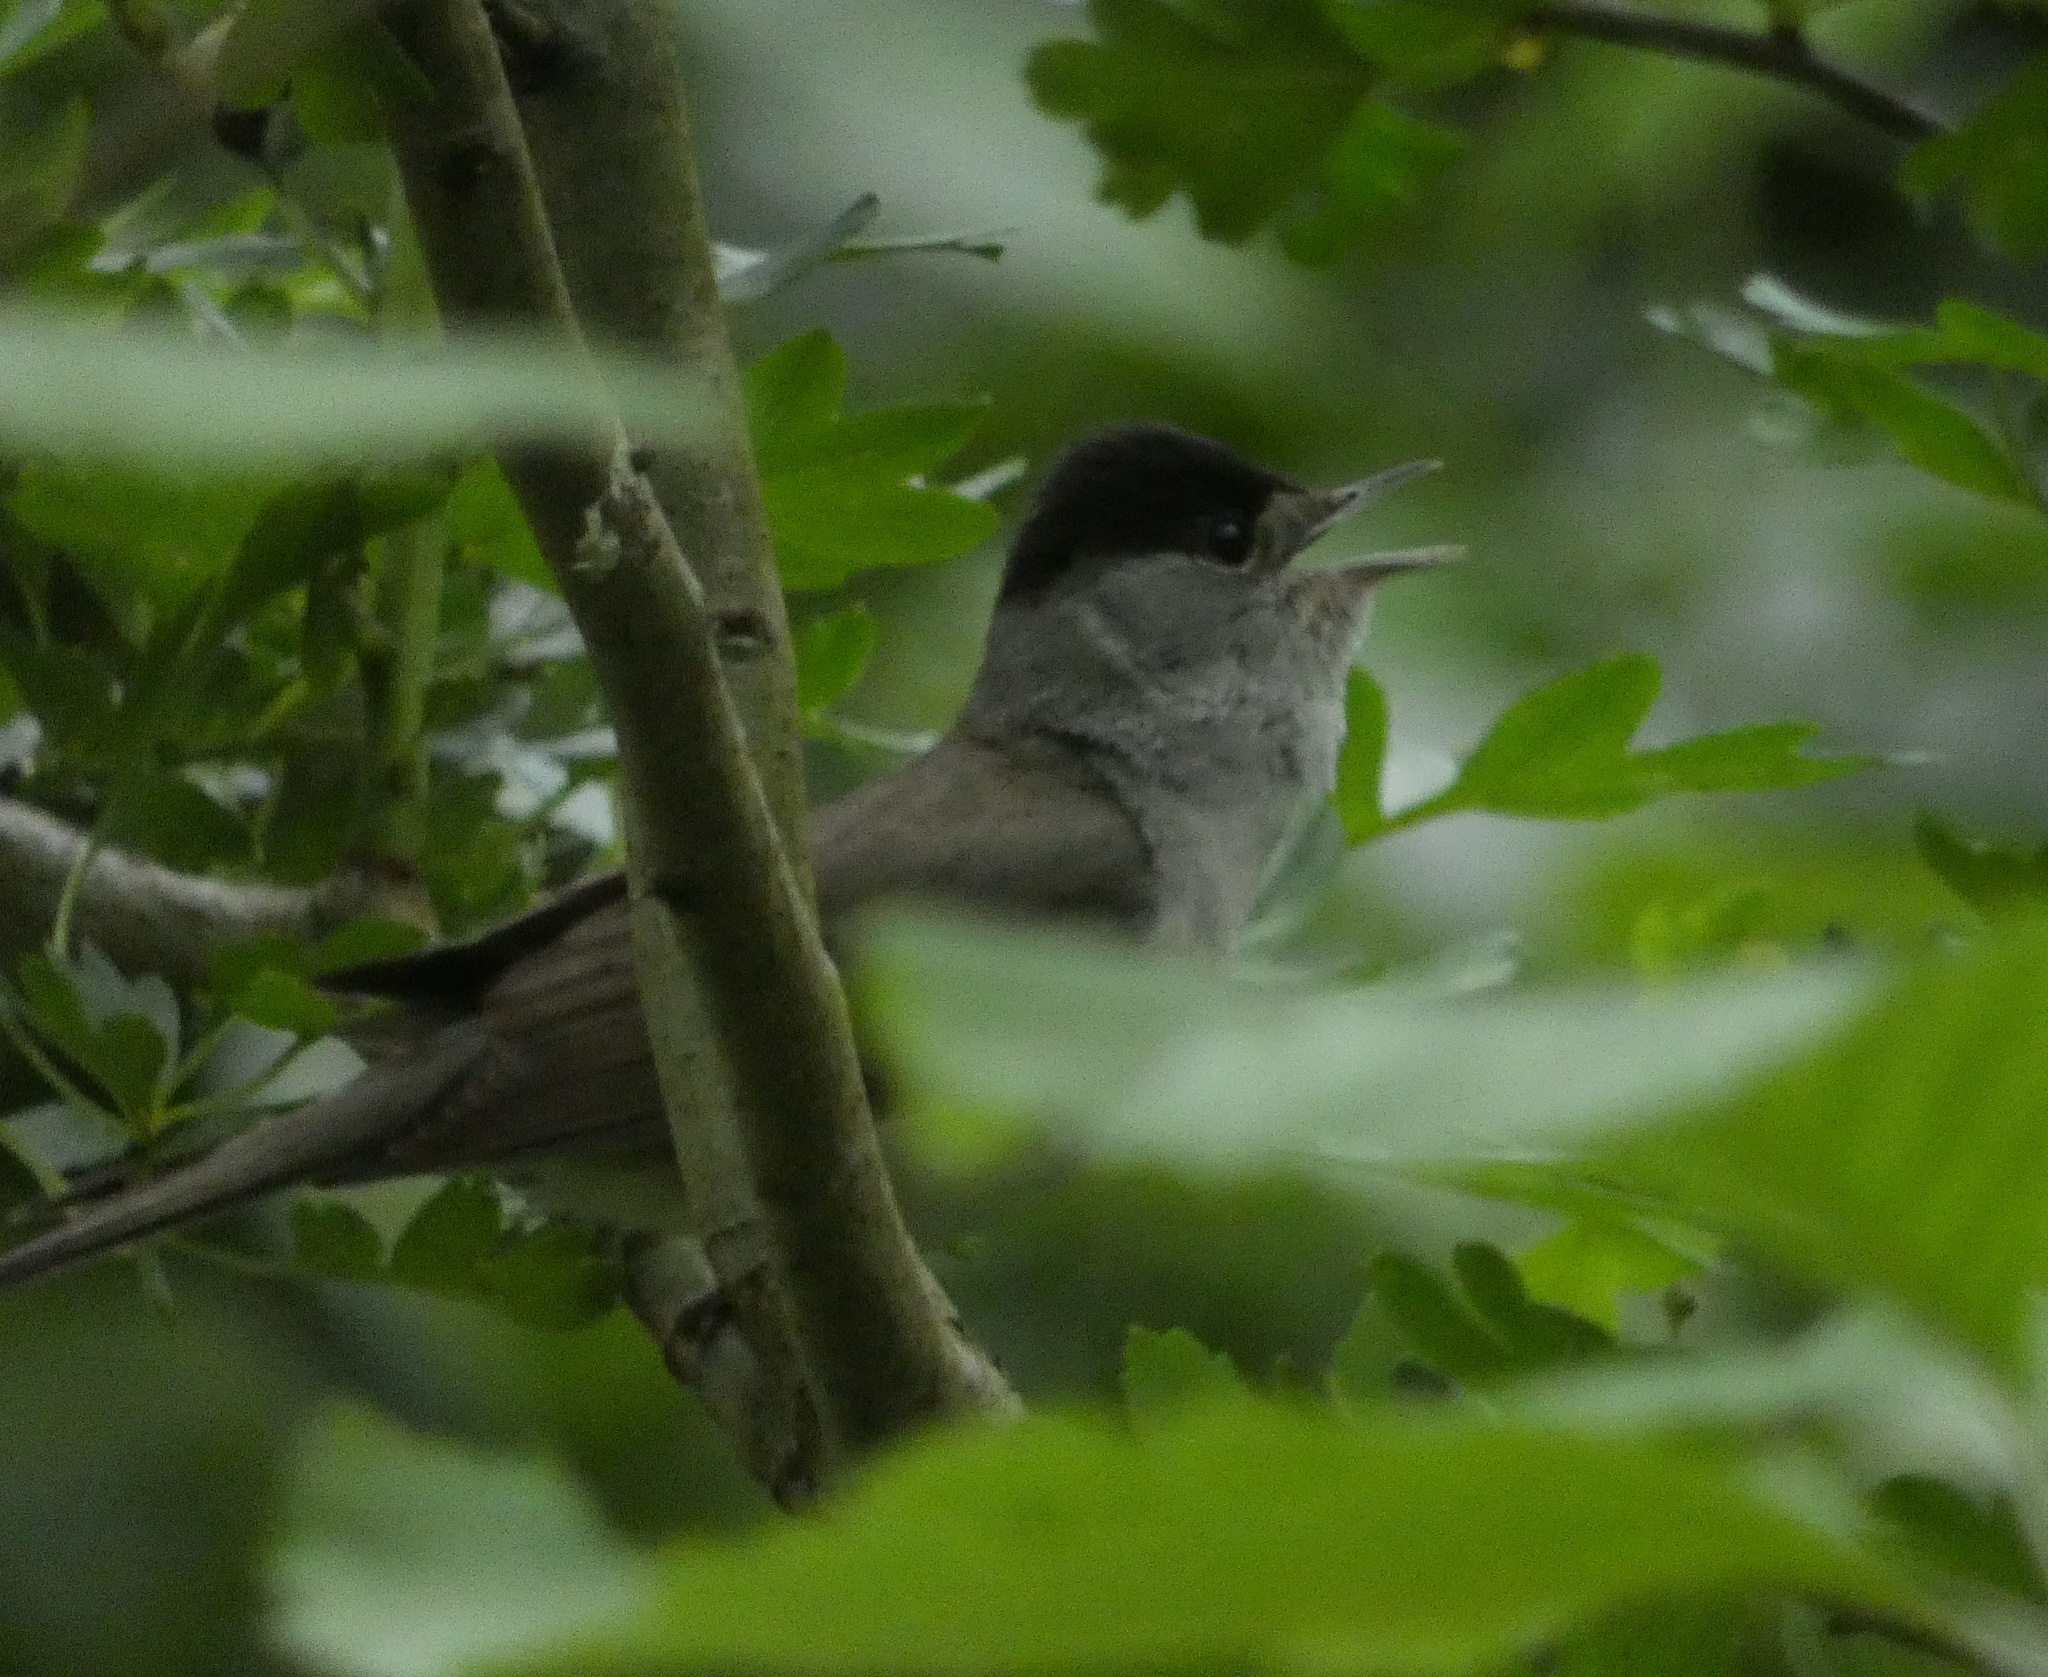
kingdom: Animalia
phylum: Chordata
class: Aves
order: Passeriformes
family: Sylviidae
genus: Sylvia
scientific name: Sylvia atricapilla
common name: Eurasian blackcap
